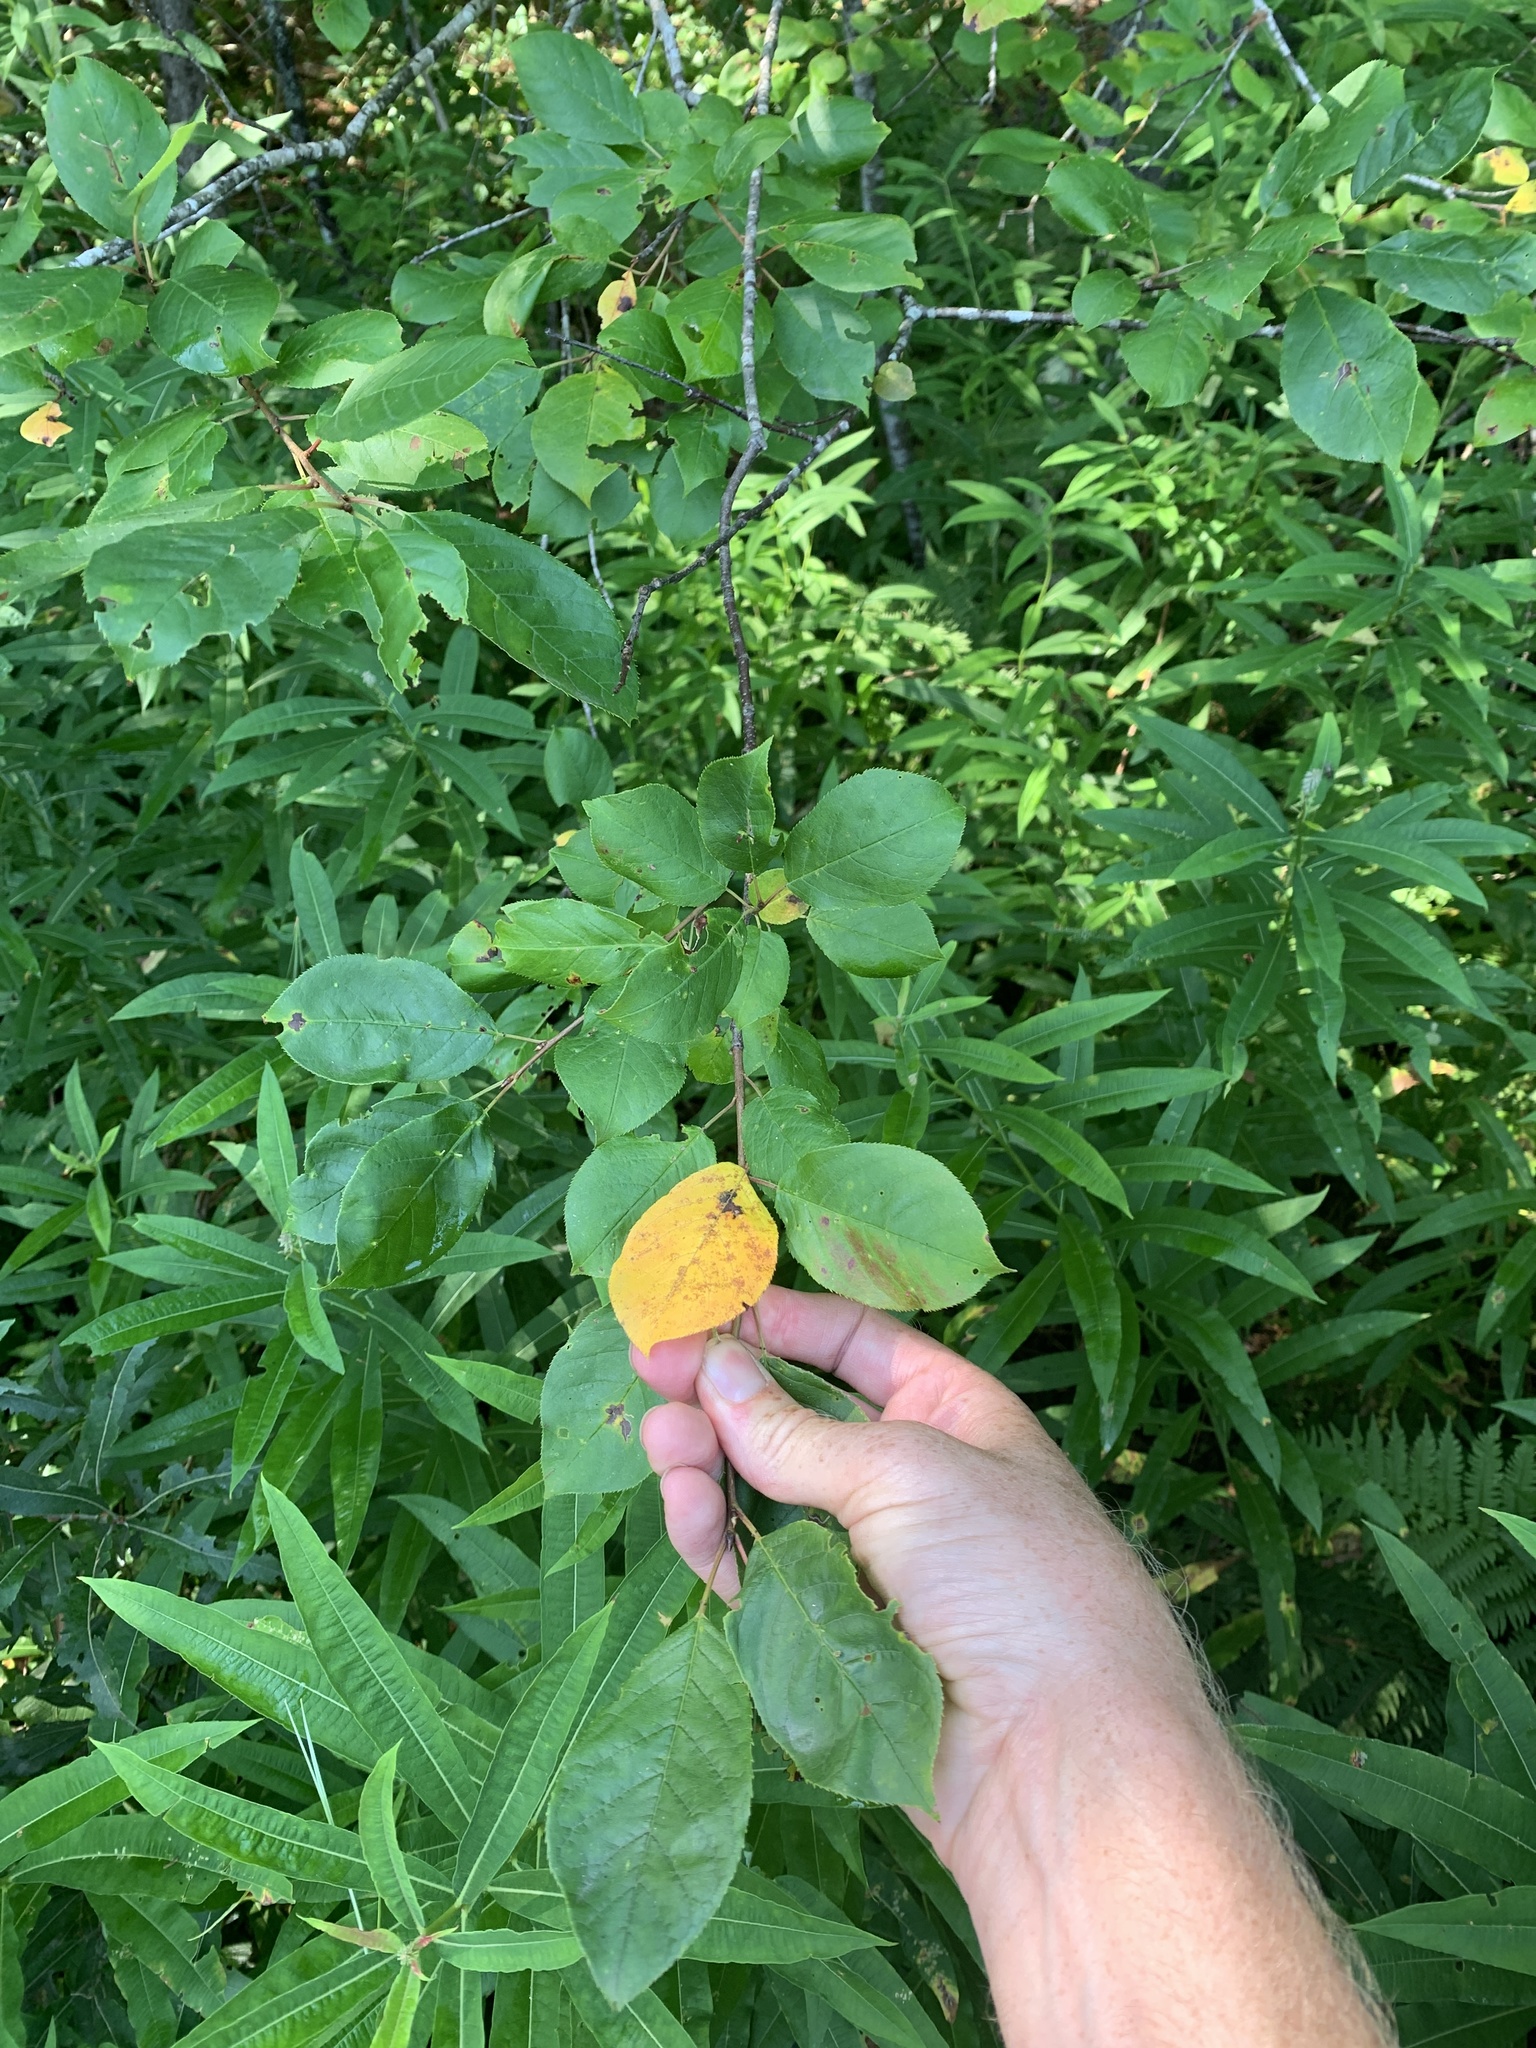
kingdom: Plantae
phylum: Tracheophyta
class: Magnoliopsida
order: Rosales
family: Rosaceae
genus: Prunus
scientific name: Prunus virginiana
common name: Chokecherry
